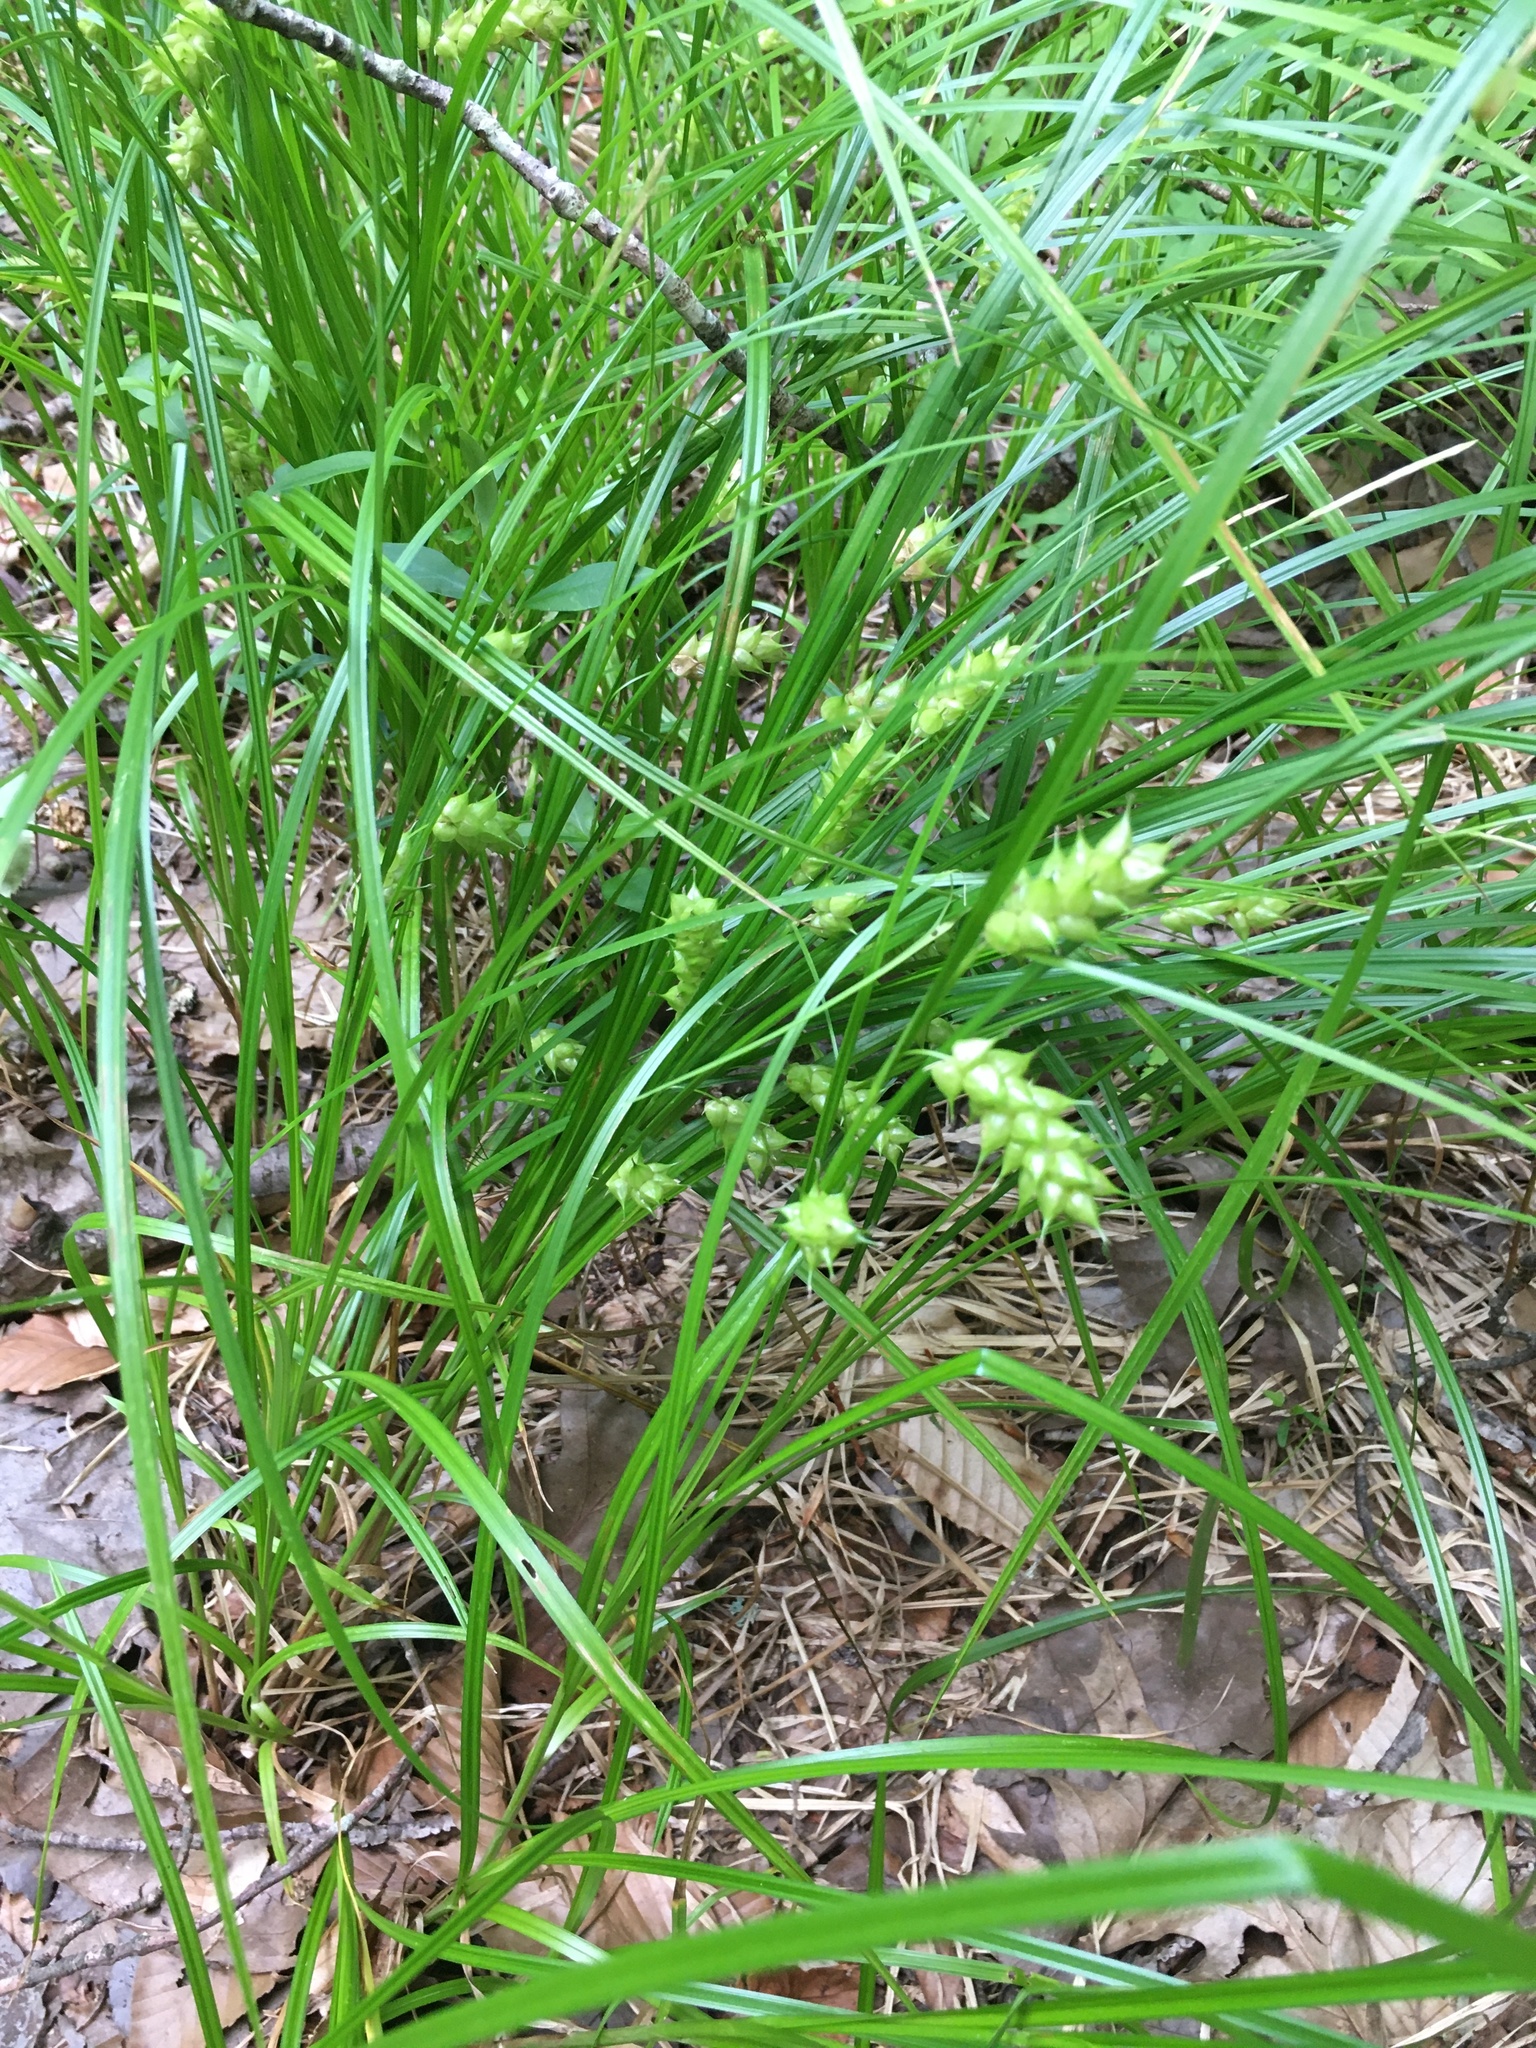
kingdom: Plantae
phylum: Tracheophyta
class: Liliopsida
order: Poales
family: Cyperaceae
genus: Carex
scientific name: Carex tuckermanii
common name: Tuckerman's sedge
